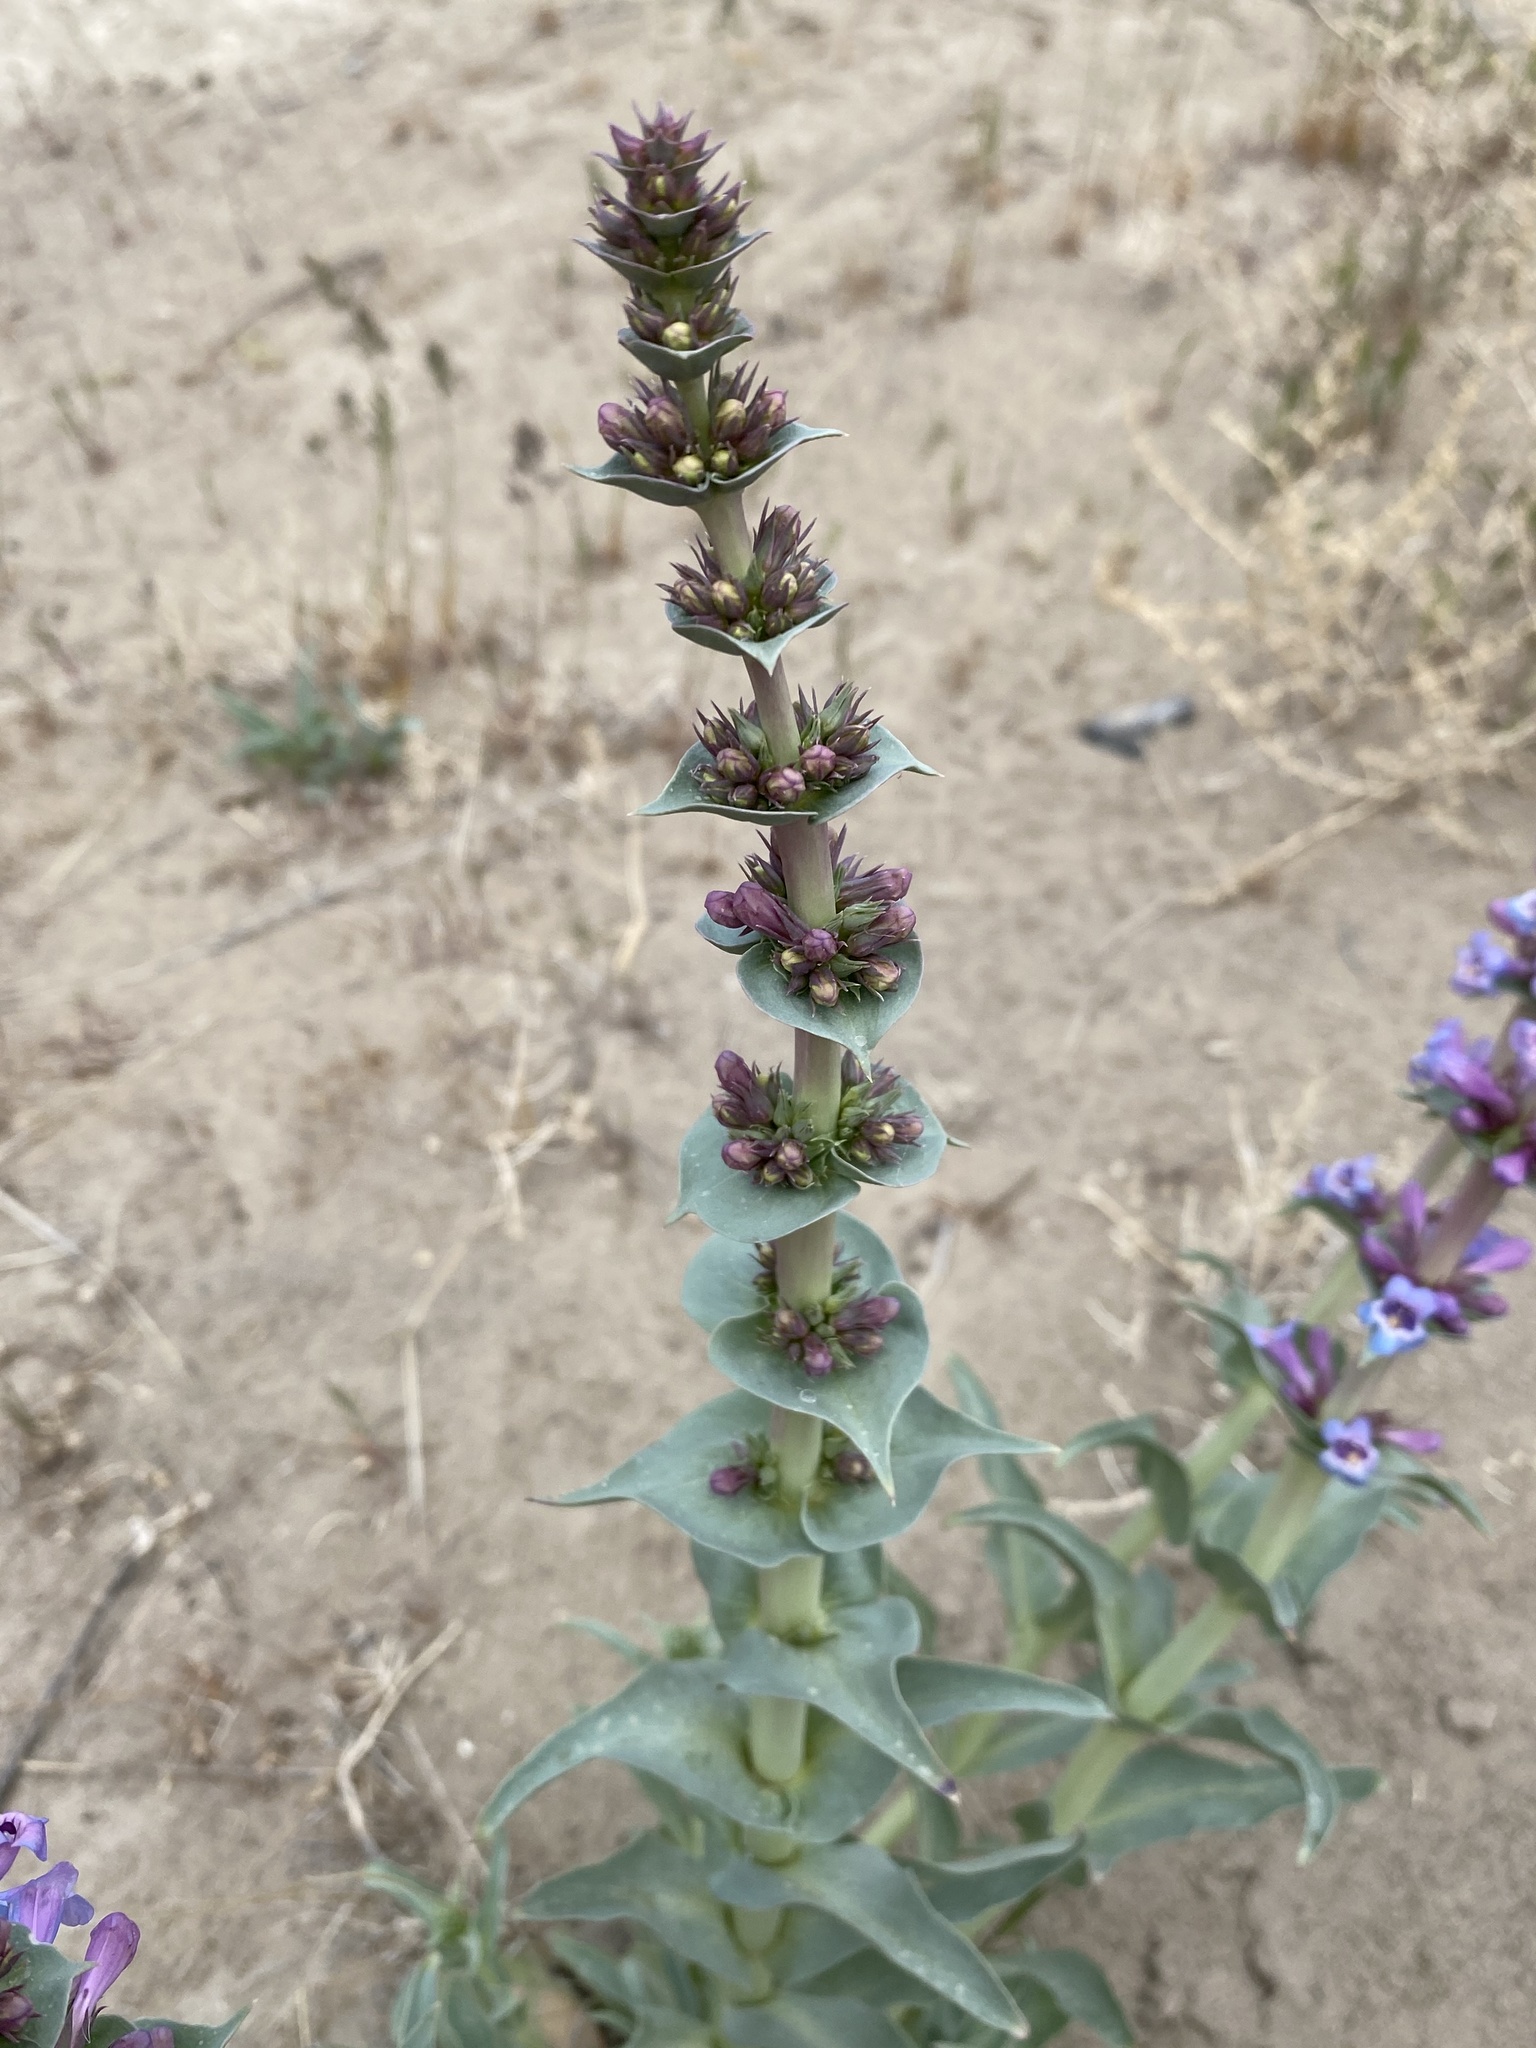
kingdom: Plantae
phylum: Tracheophyta
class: Magnoliopsida
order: Lamiales
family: Plantaginaceae
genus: Penstemon
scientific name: Penstemon acuminatus
